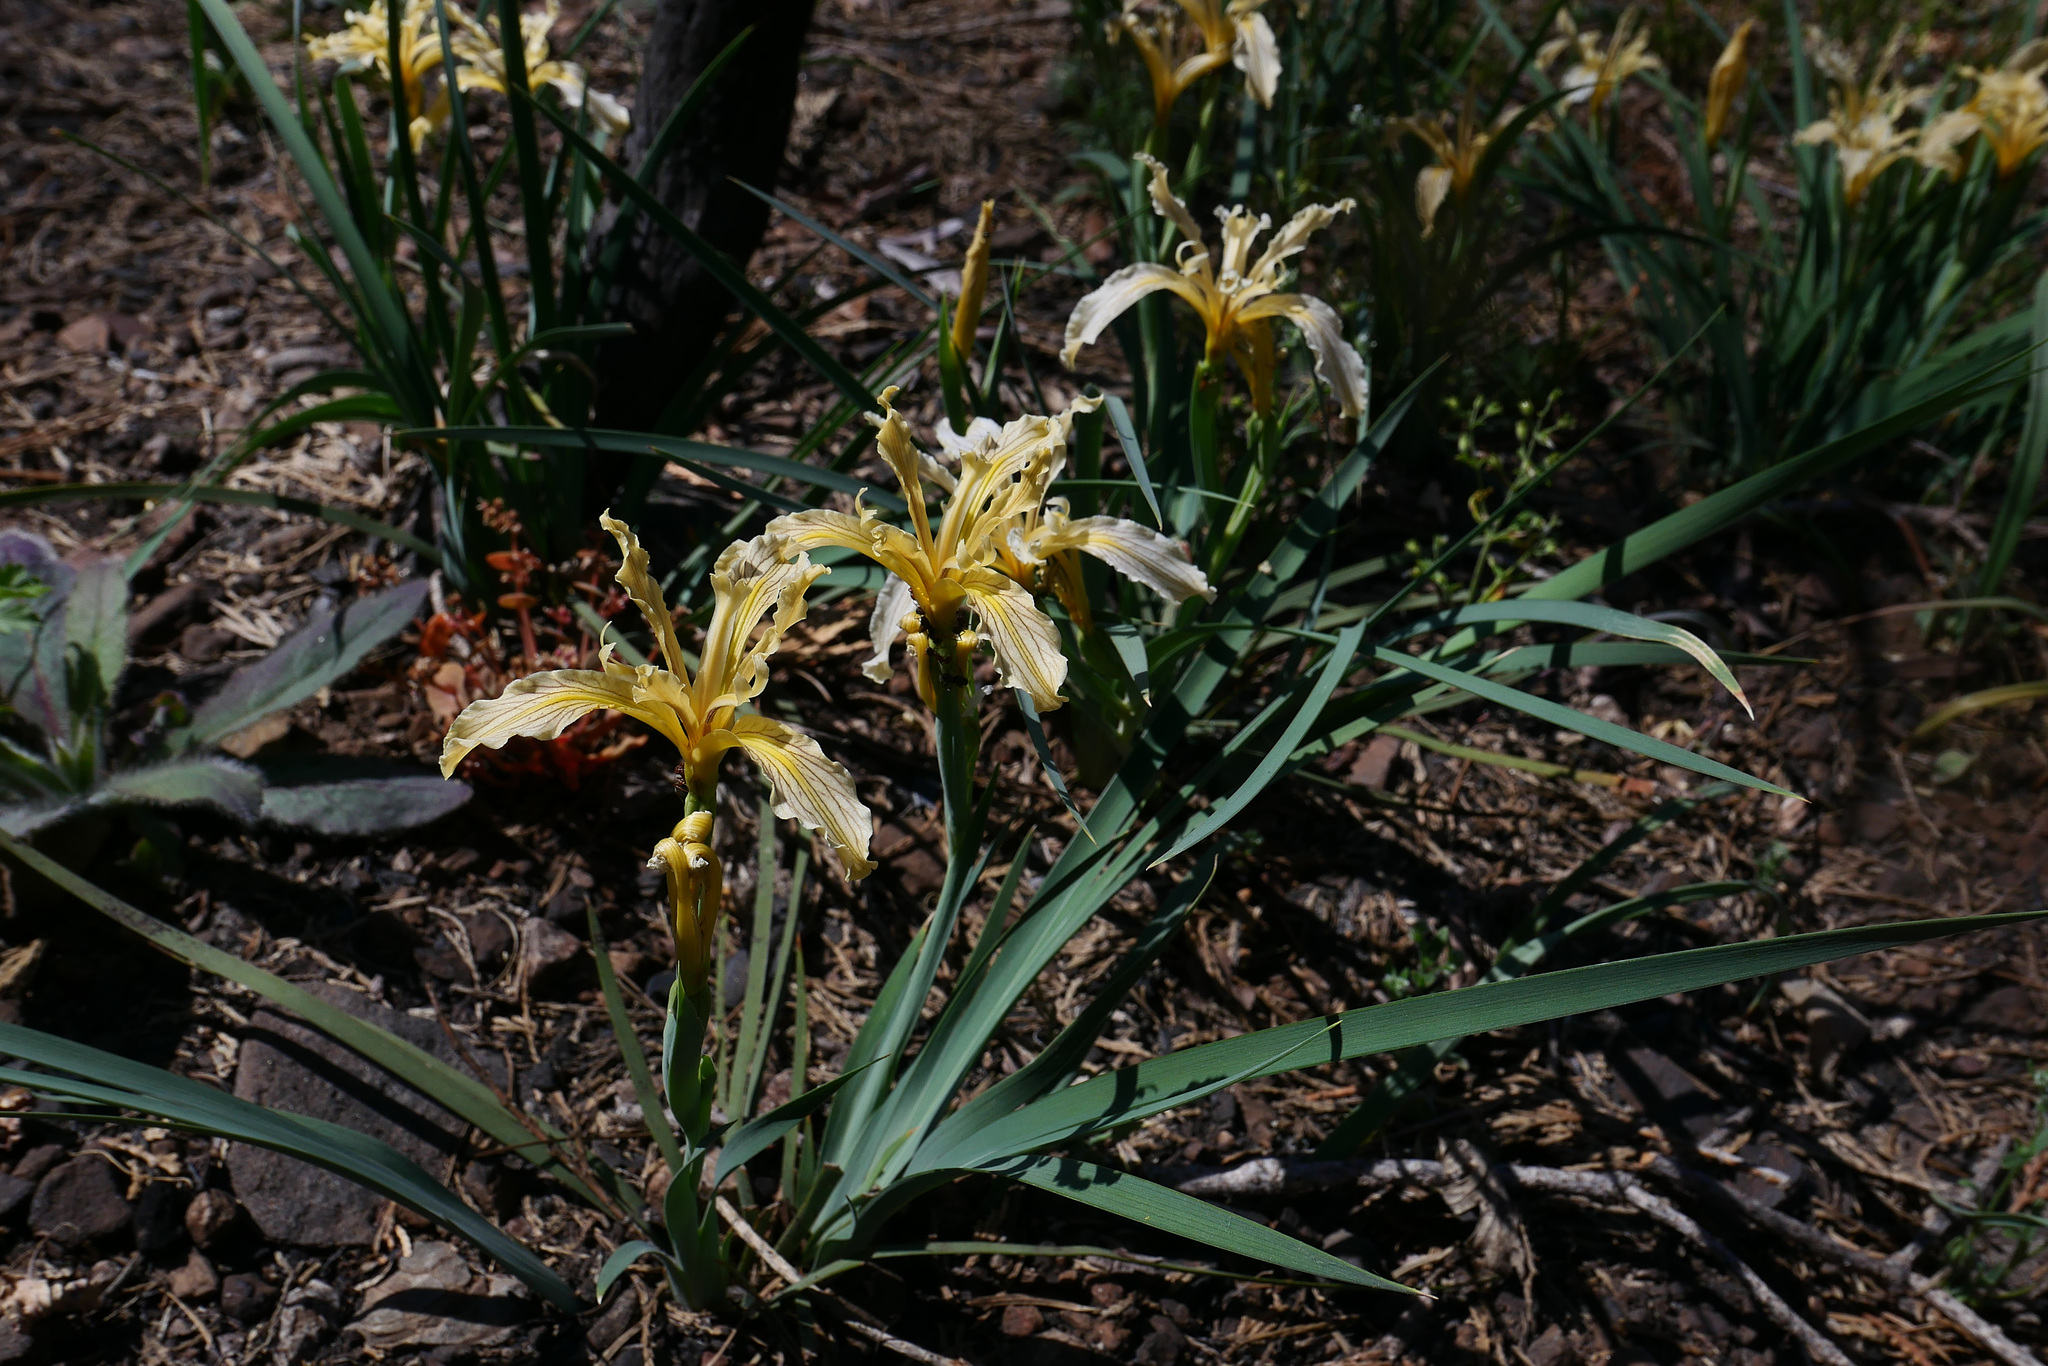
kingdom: Plantae
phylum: Tracheophyta
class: Liliopsida
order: Asparagales
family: Iridaceae
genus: Iris
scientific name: Iris hartwegii
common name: Sierra iris
